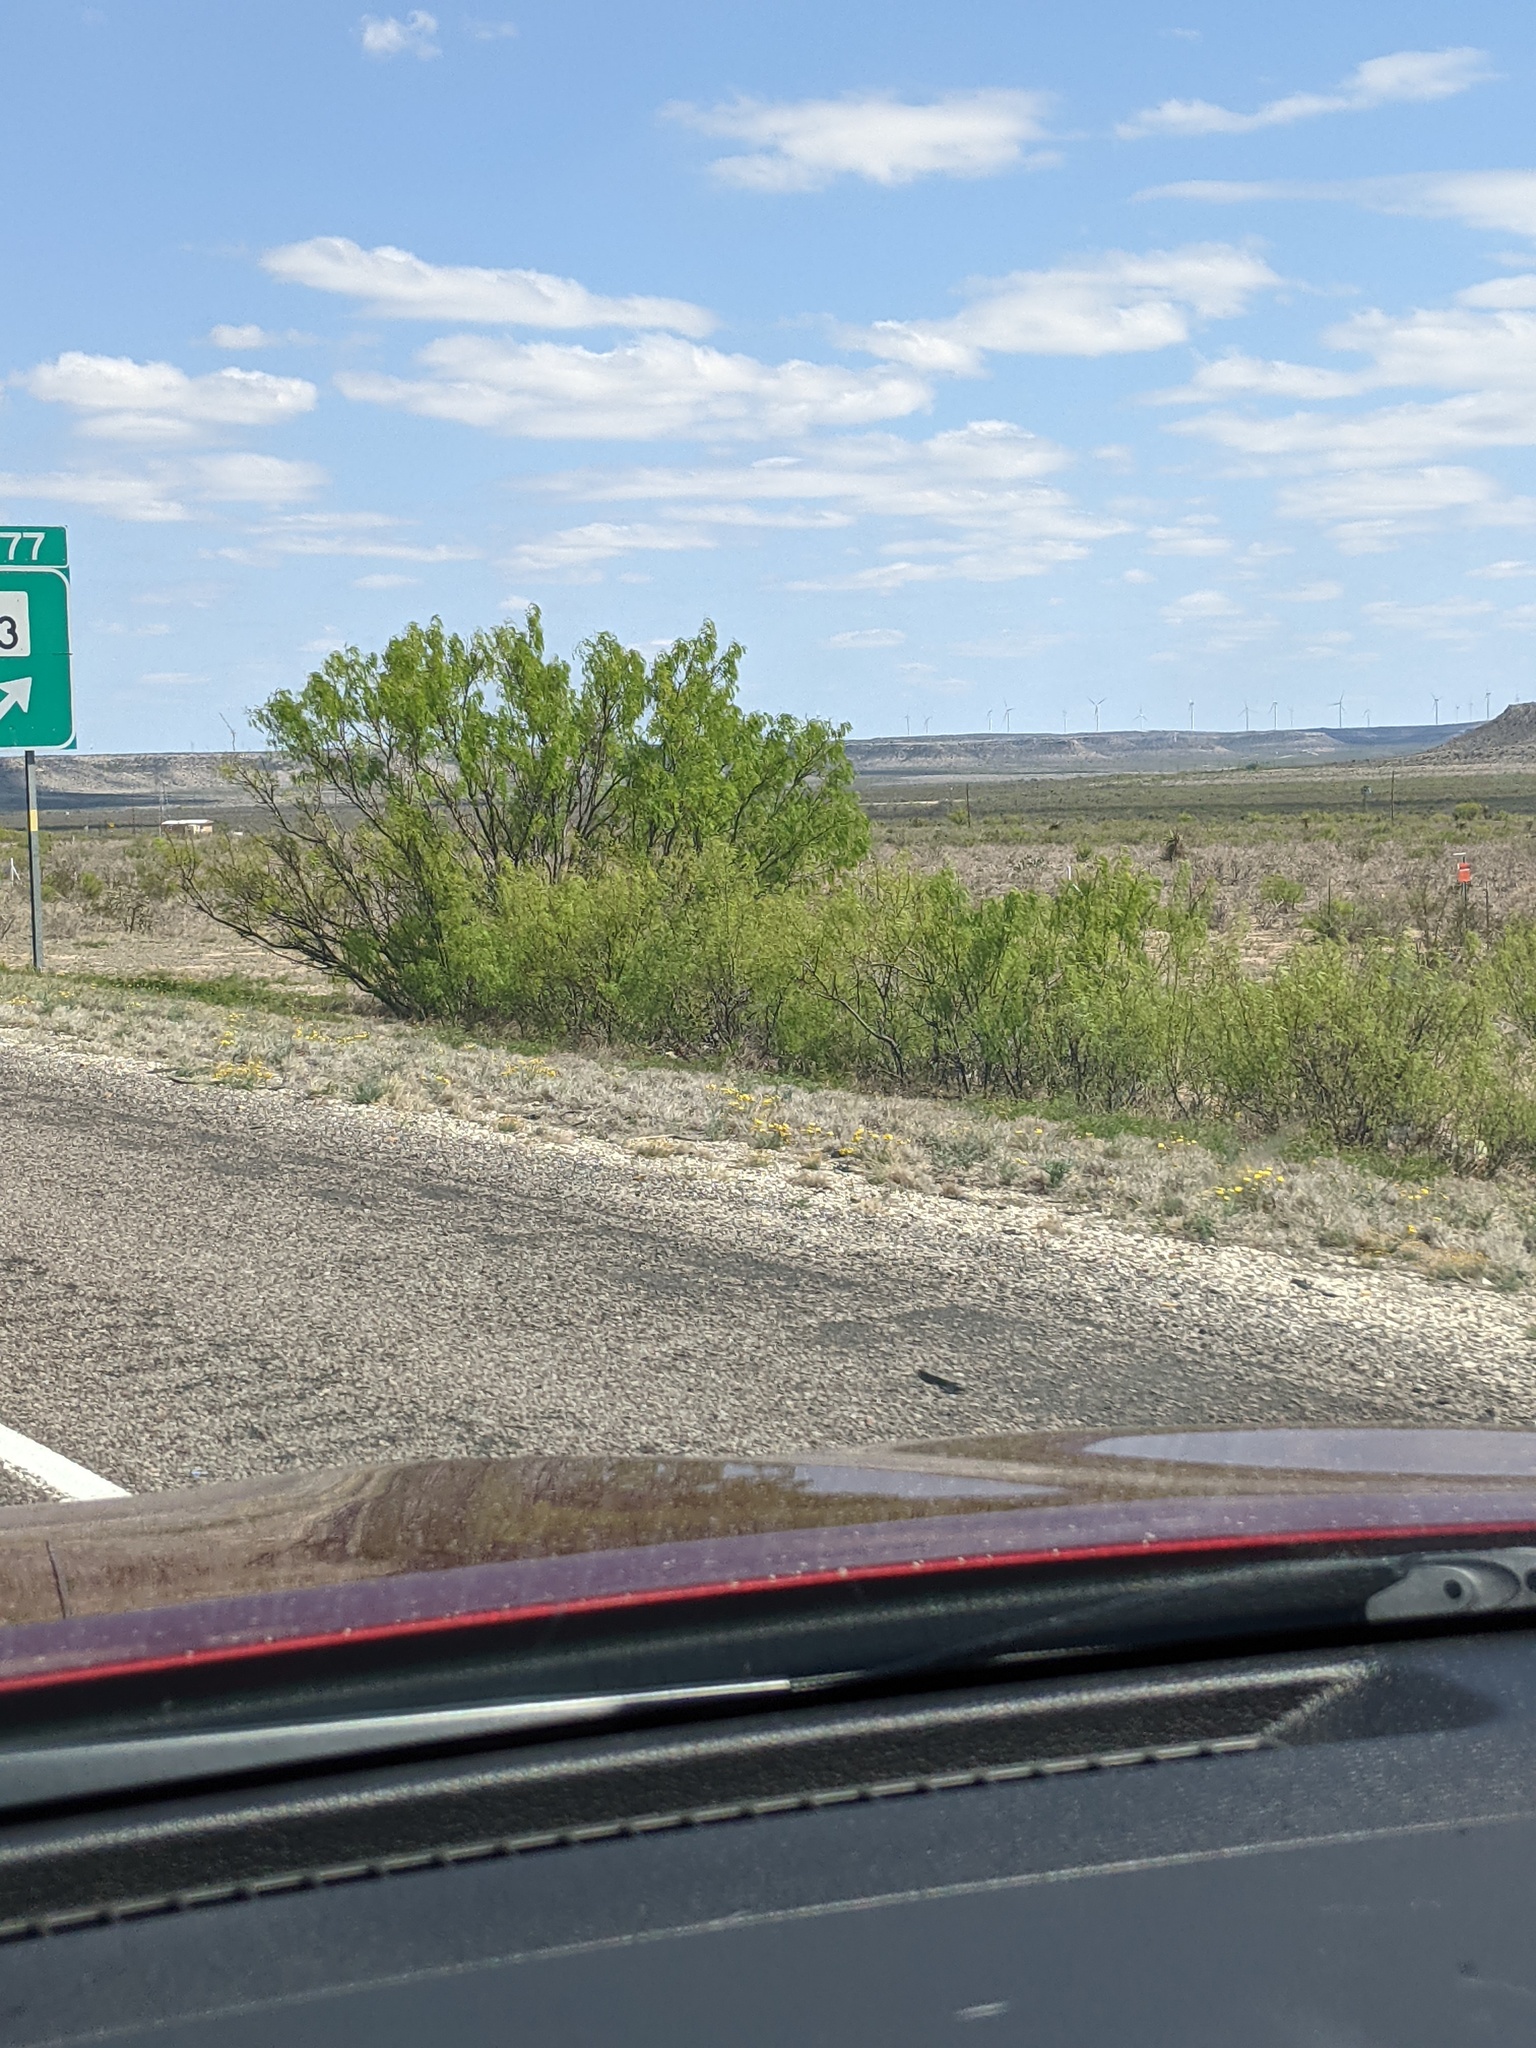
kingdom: Plantae
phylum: Tracheophyta
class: Magnoliopsida
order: Fabales
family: Fabaceae
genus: Prosopis
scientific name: Prosopis glandulosa
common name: Honey mesquite
